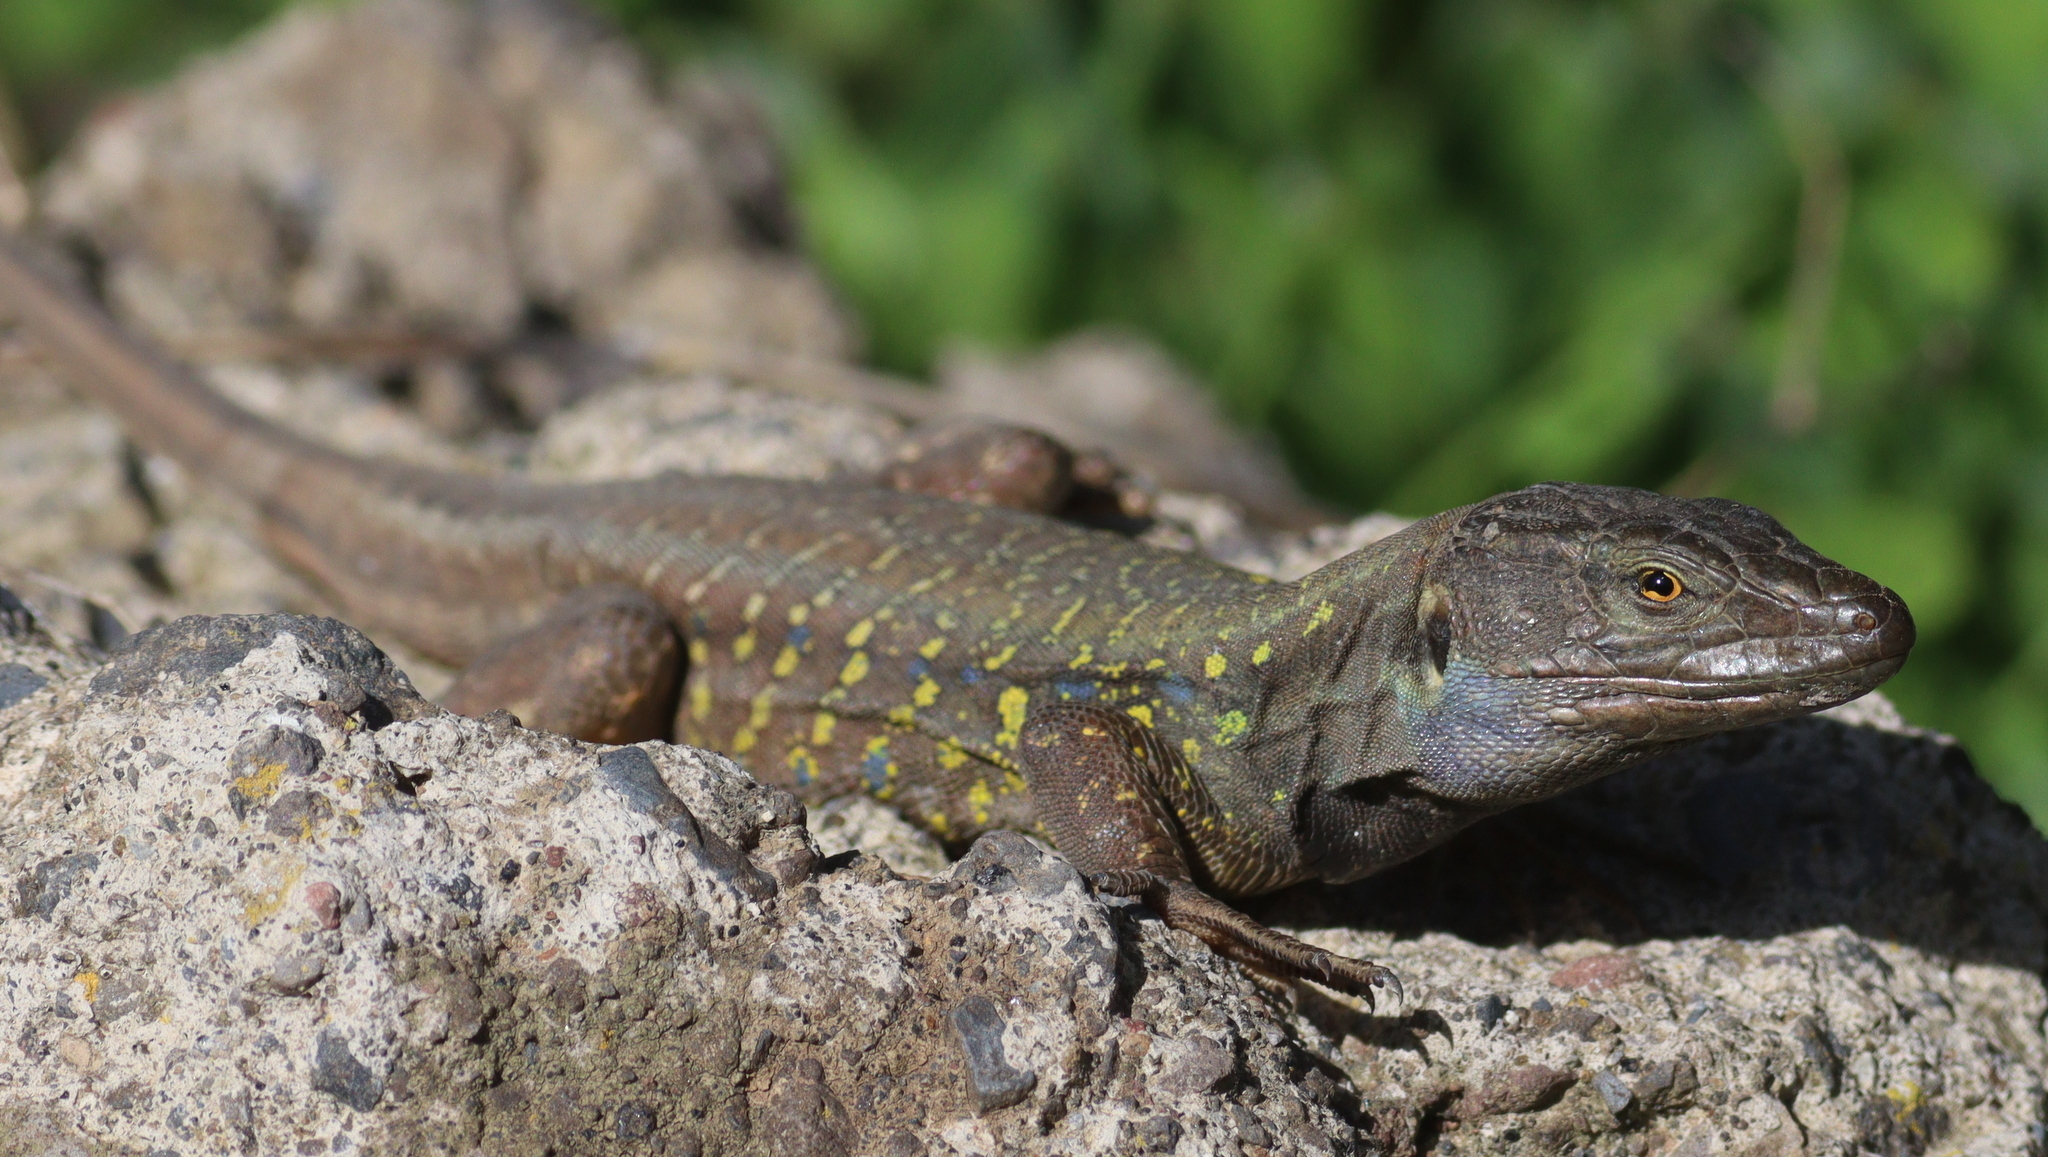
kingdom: Animalia
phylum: Chordata
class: Squamata
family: Lacertidae
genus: Gallotia
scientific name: Gallotia galloti
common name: Gallot's lizard
